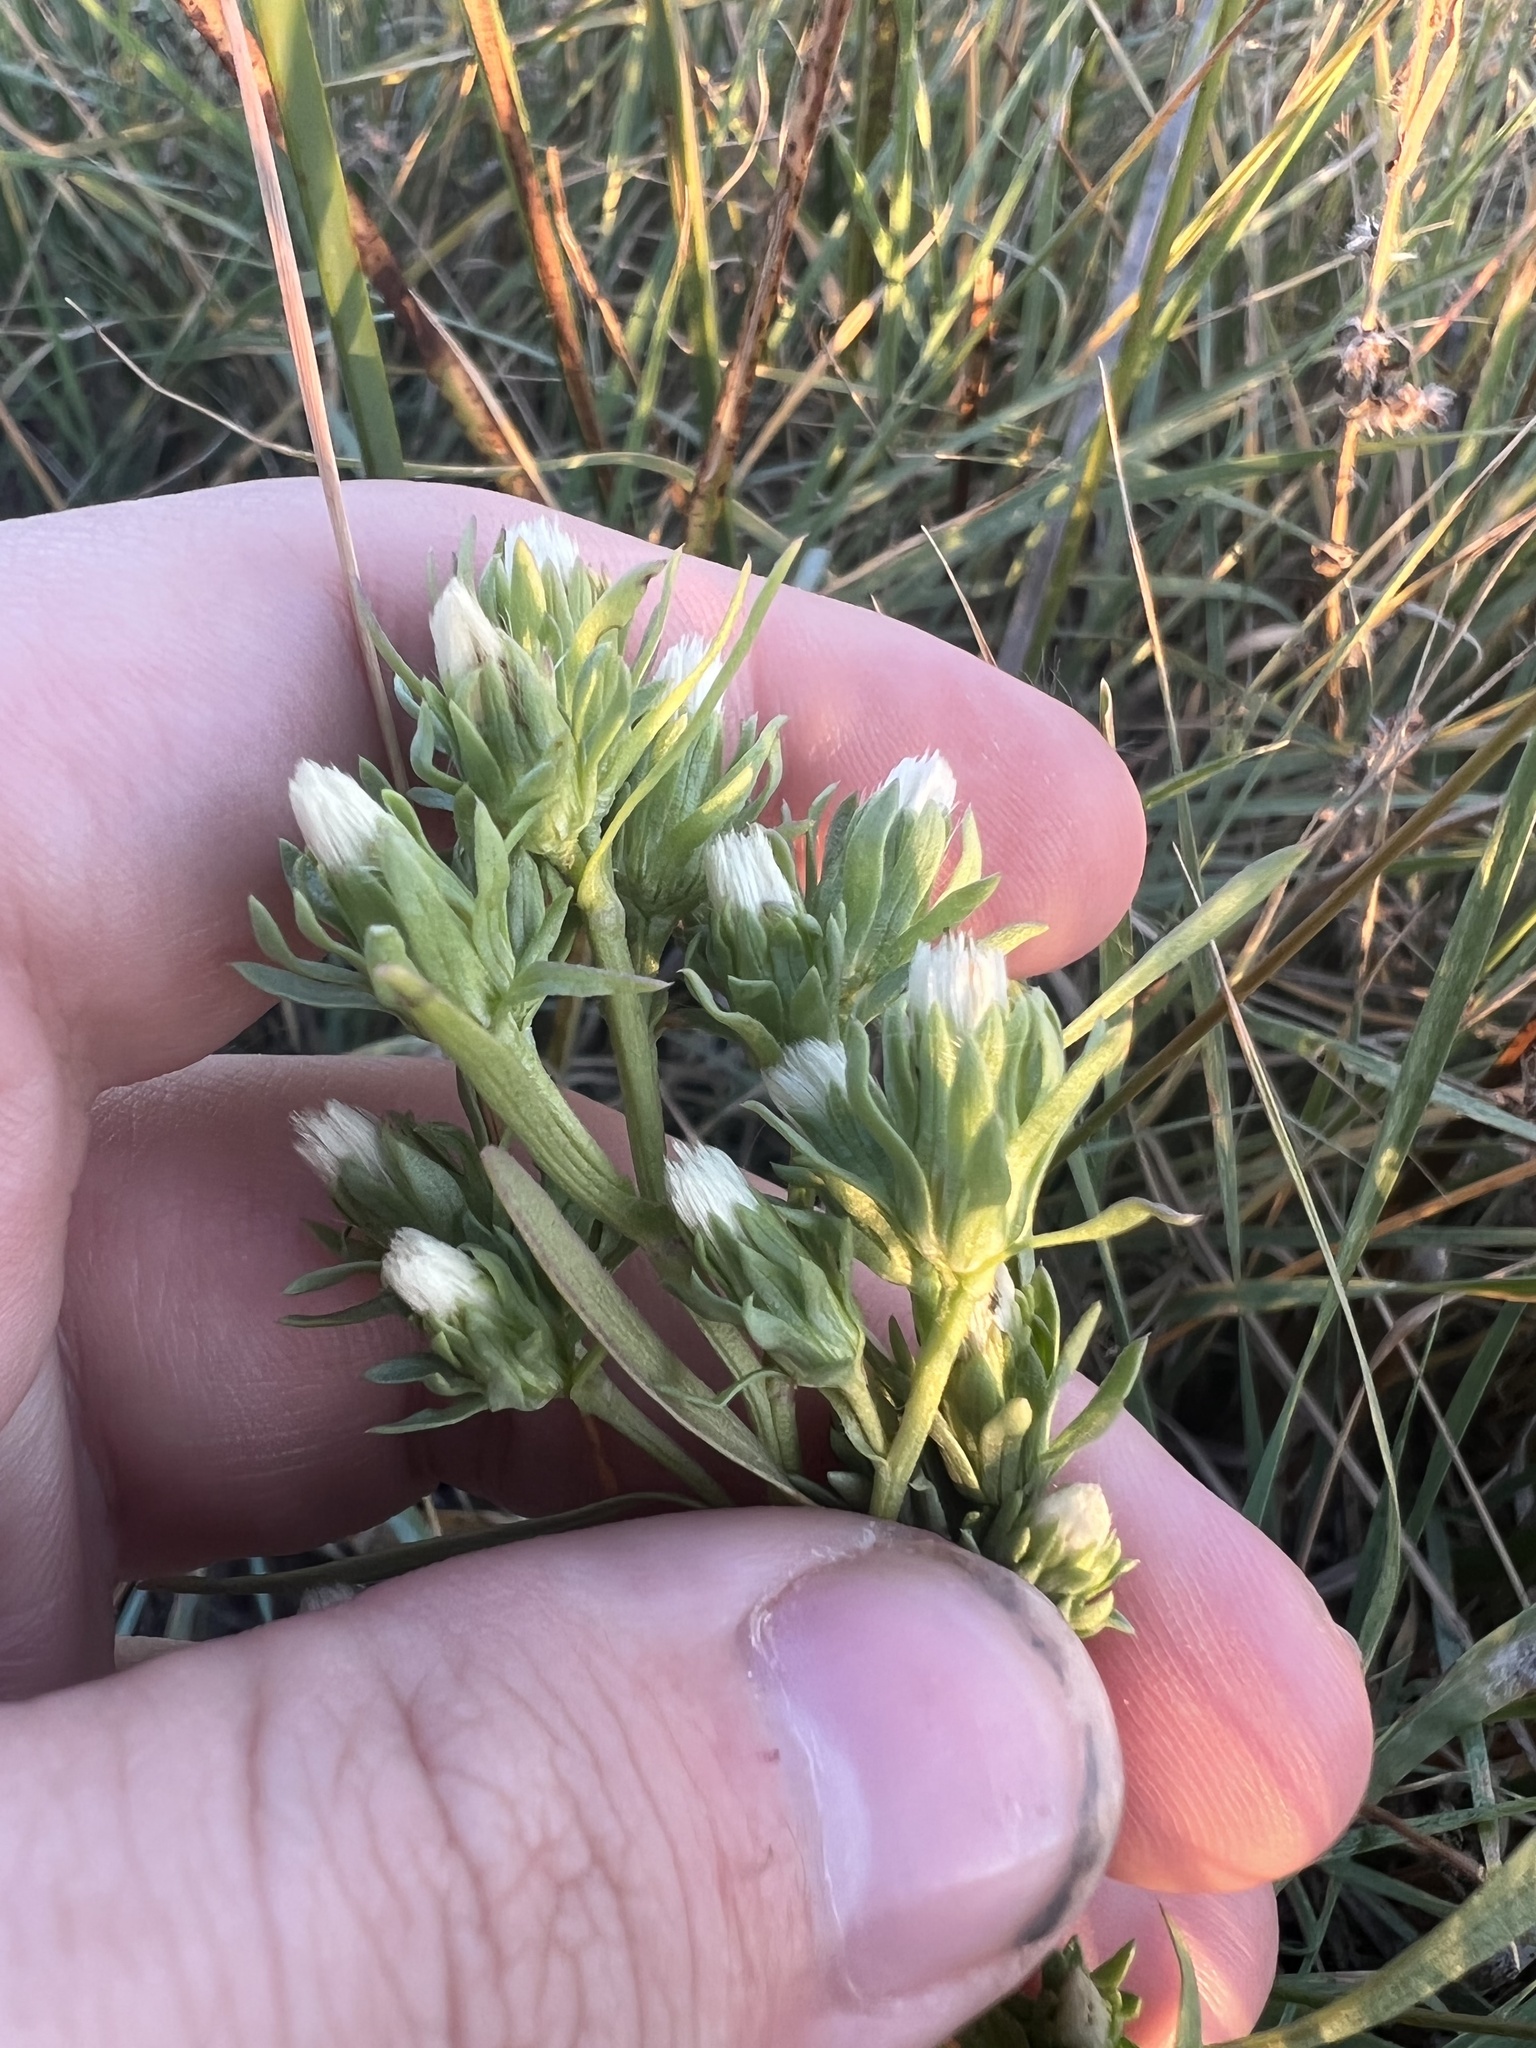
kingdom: Plantae
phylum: Tracheophyta
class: Magnoliopsida
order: Asterales
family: Asteraceae
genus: Symphyotrichum
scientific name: Symphyotrichum ciliatum
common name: Rayless annual aster
